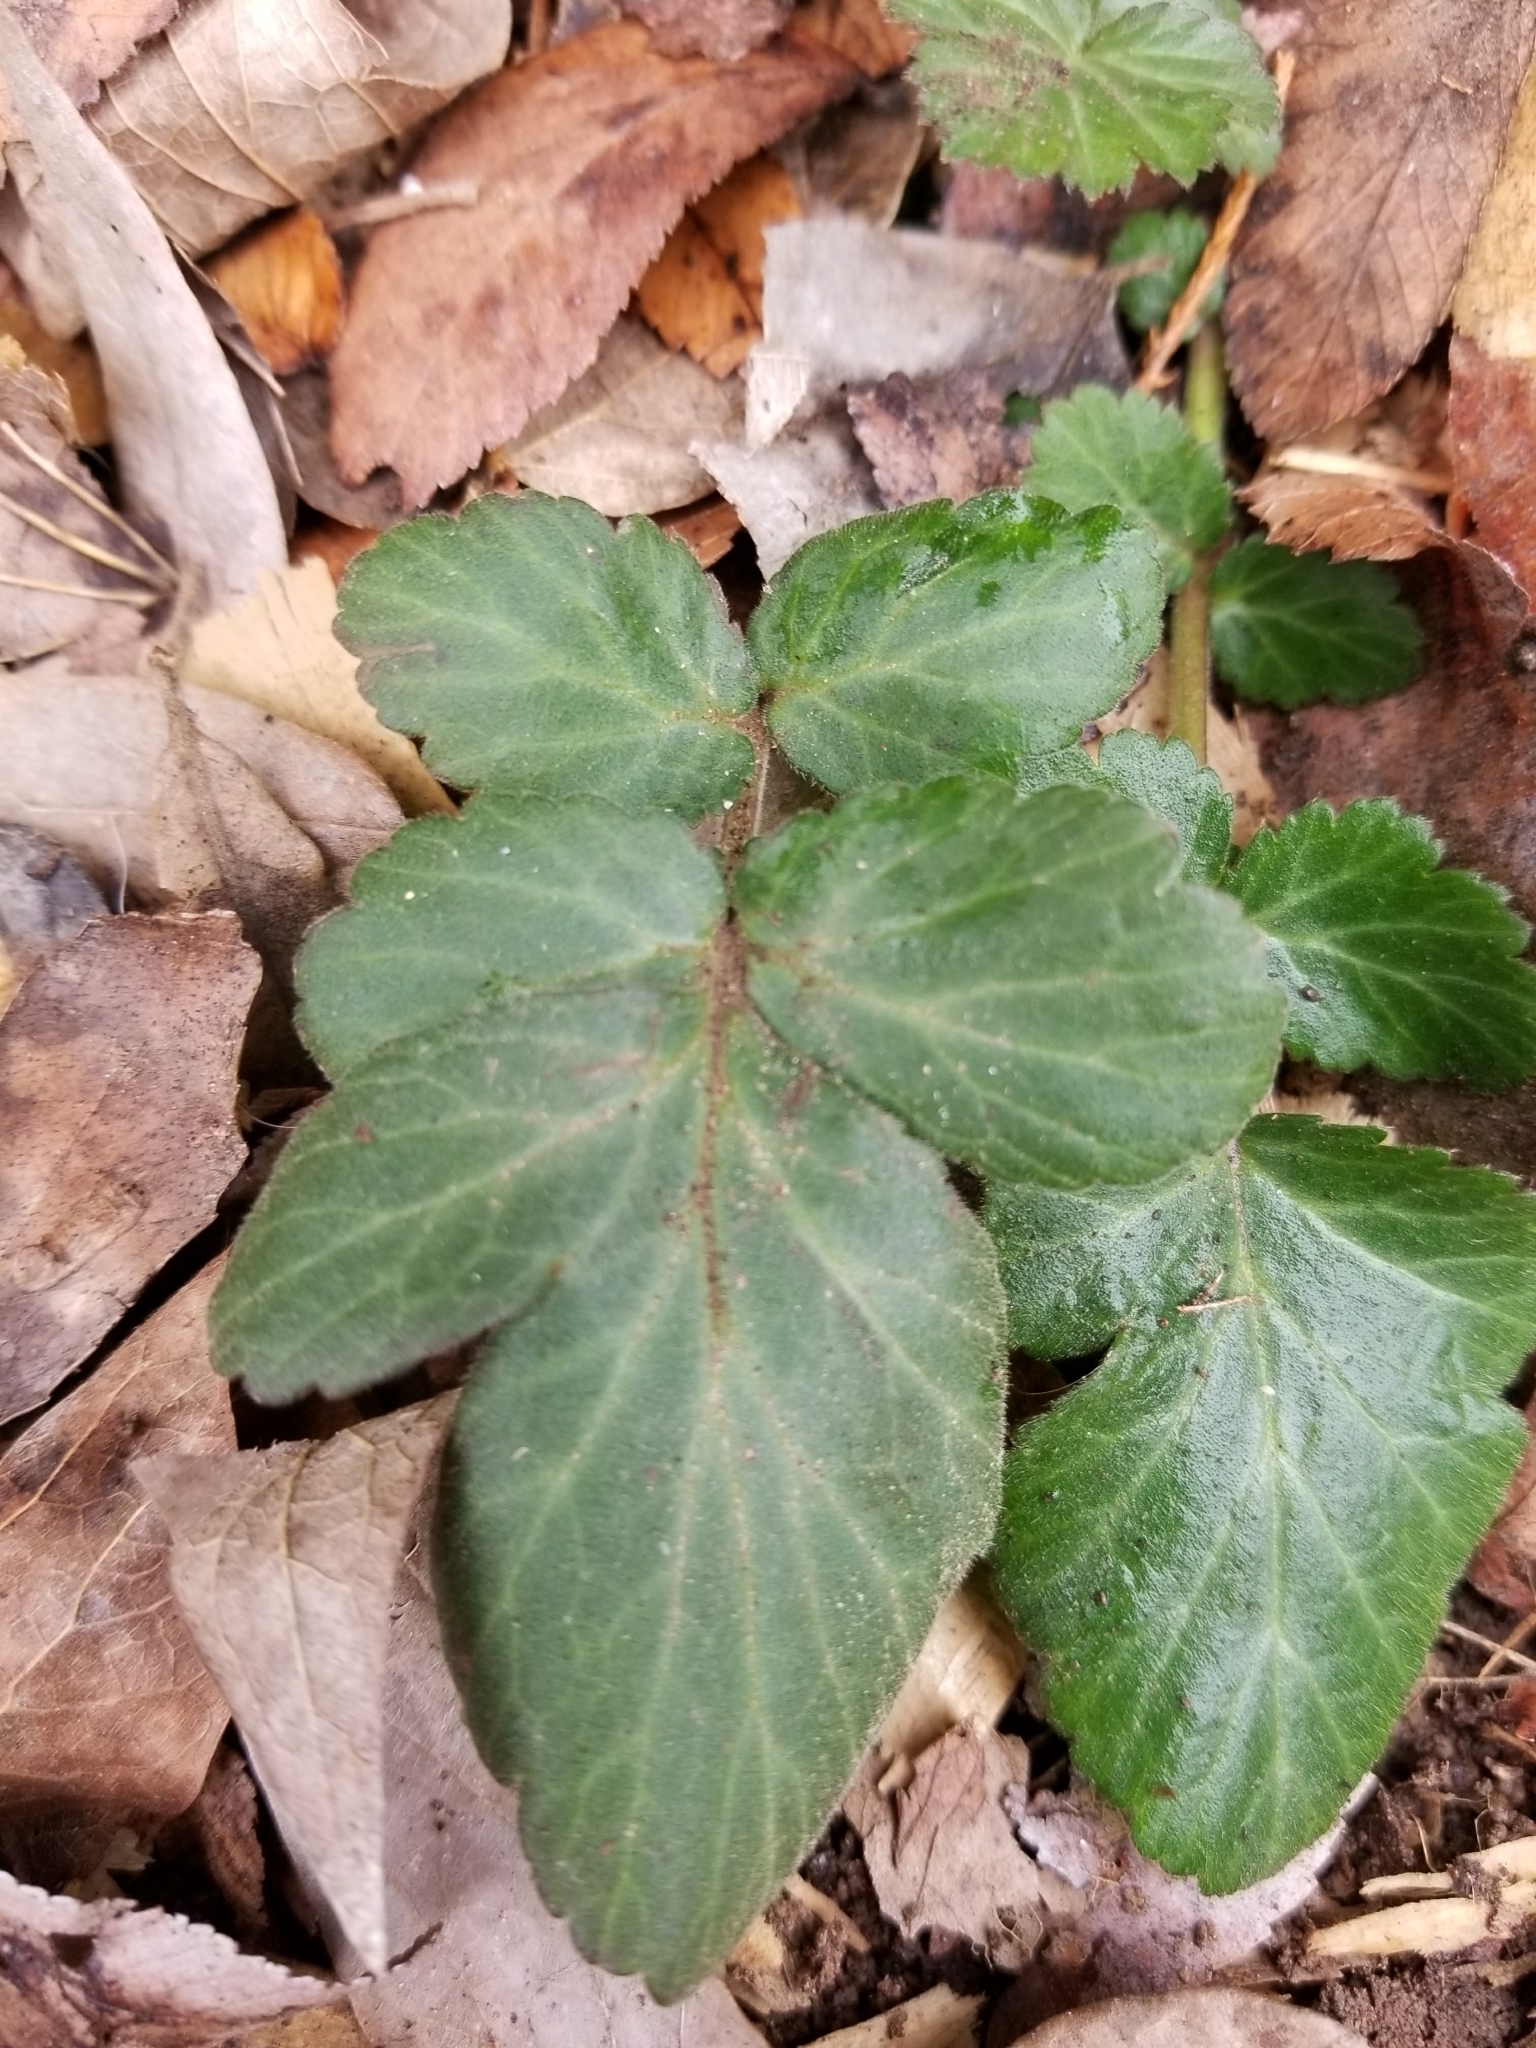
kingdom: Plantae
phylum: Tracheophyta
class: Magnoliopsida
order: Rosales
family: Rosaceae
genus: Geum
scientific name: Geum canadense
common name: White avens
